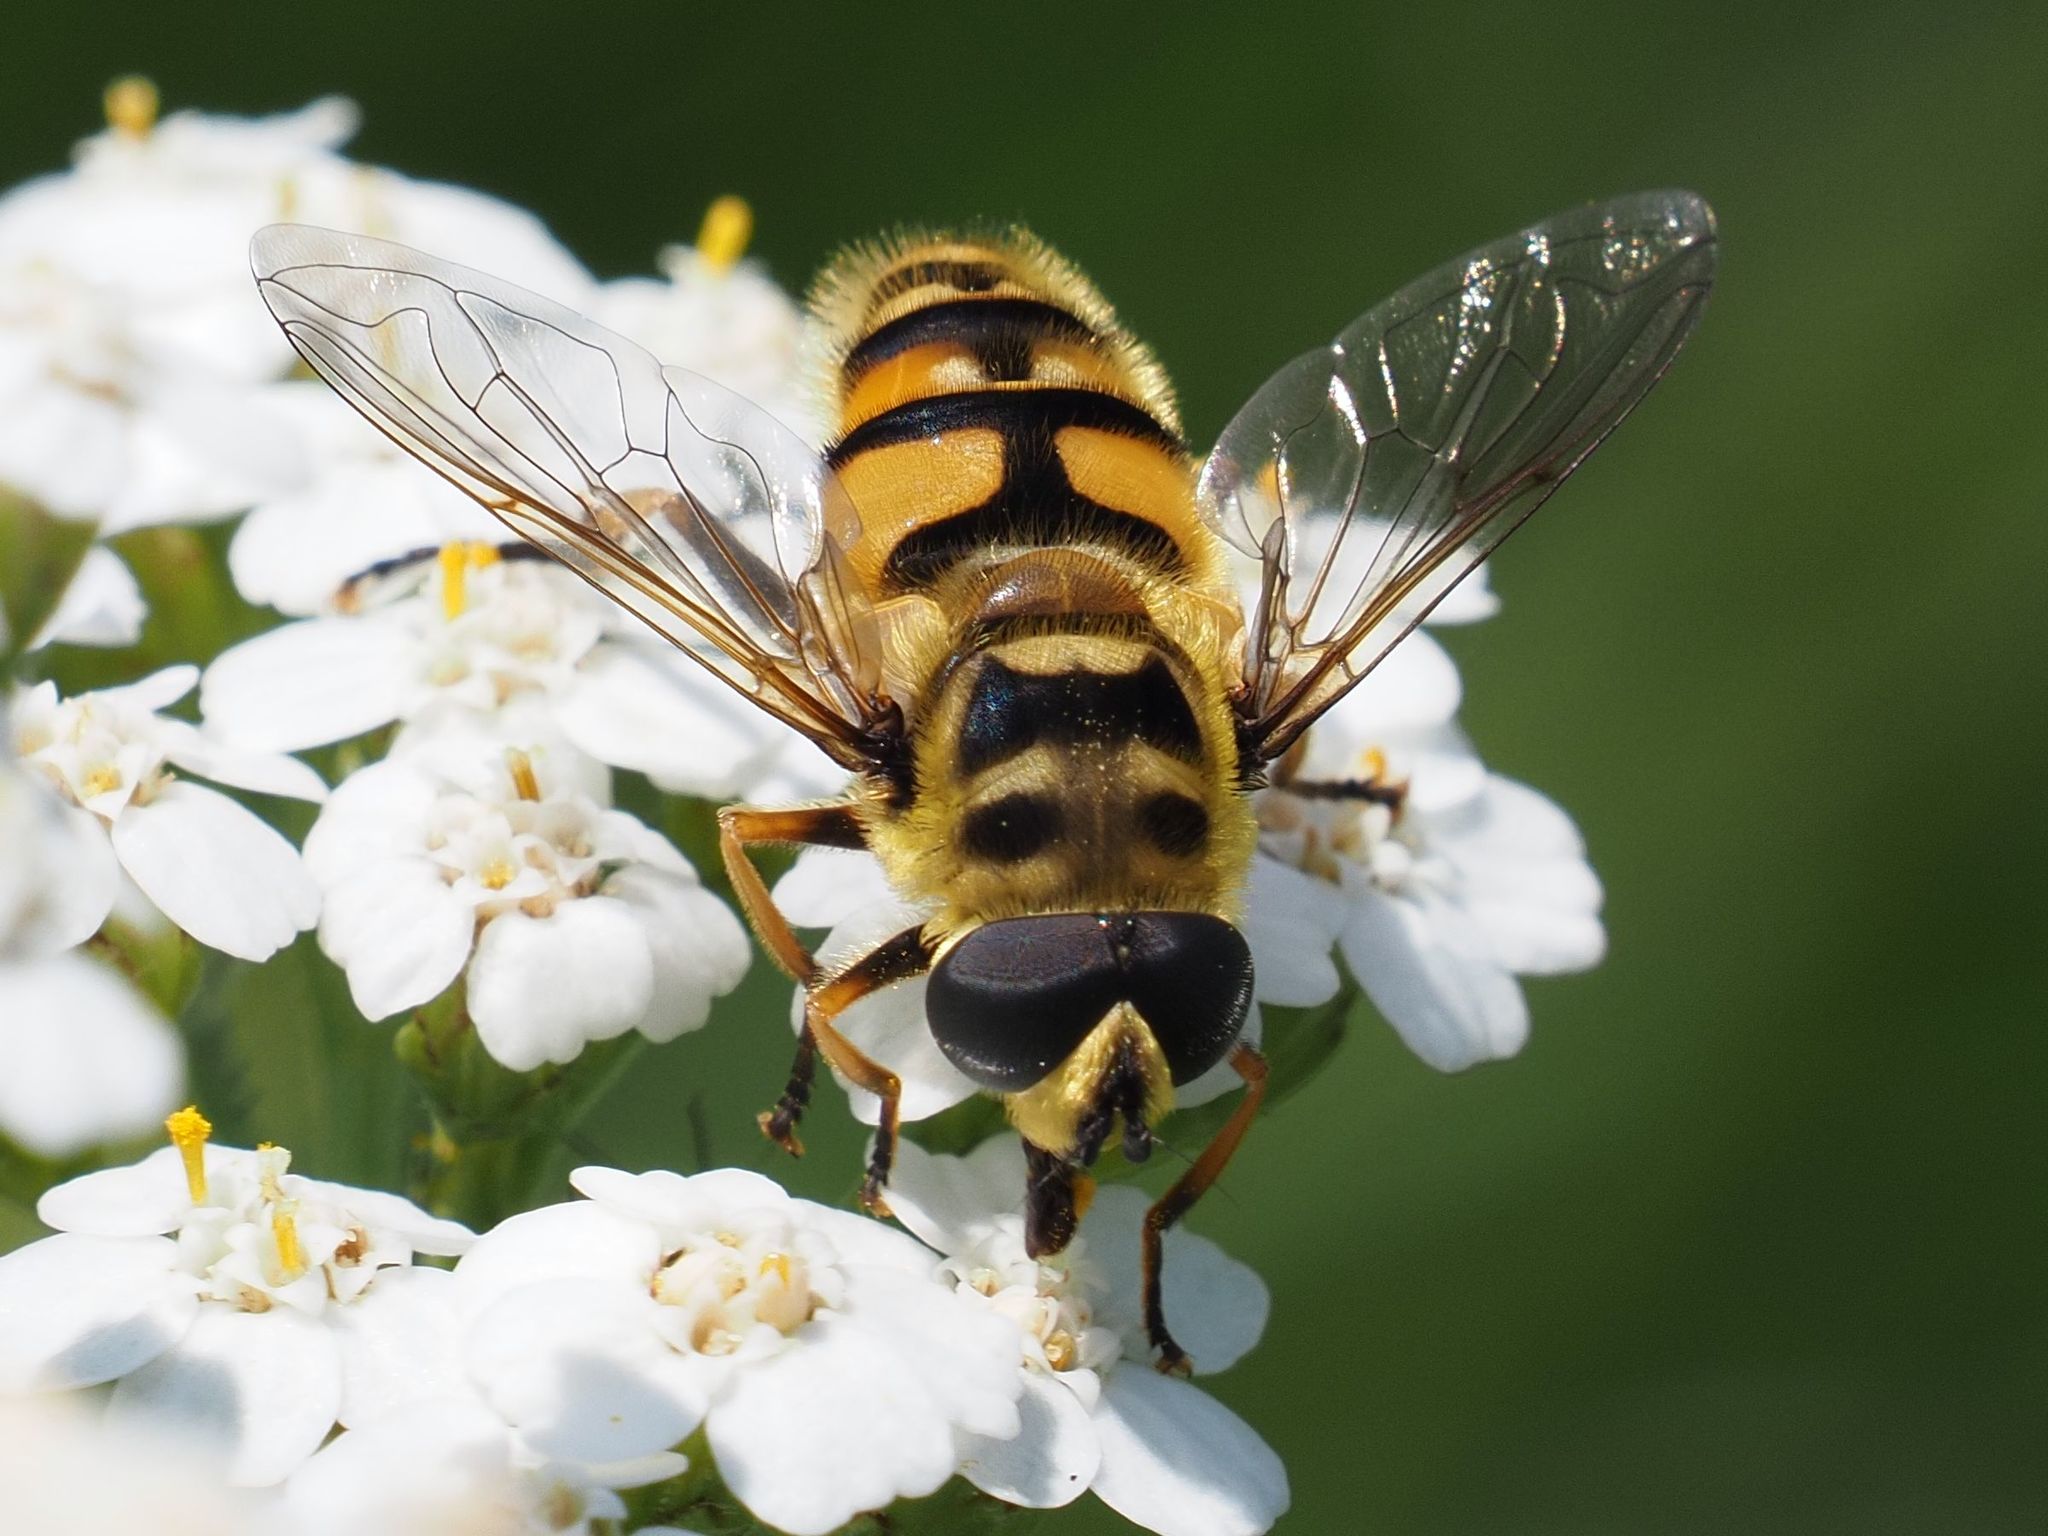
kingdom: Animalia
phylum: Arthropoda
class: Insecta
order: Diptera
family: Syrphidae
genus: Myathropa
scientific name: Myathropa florea
